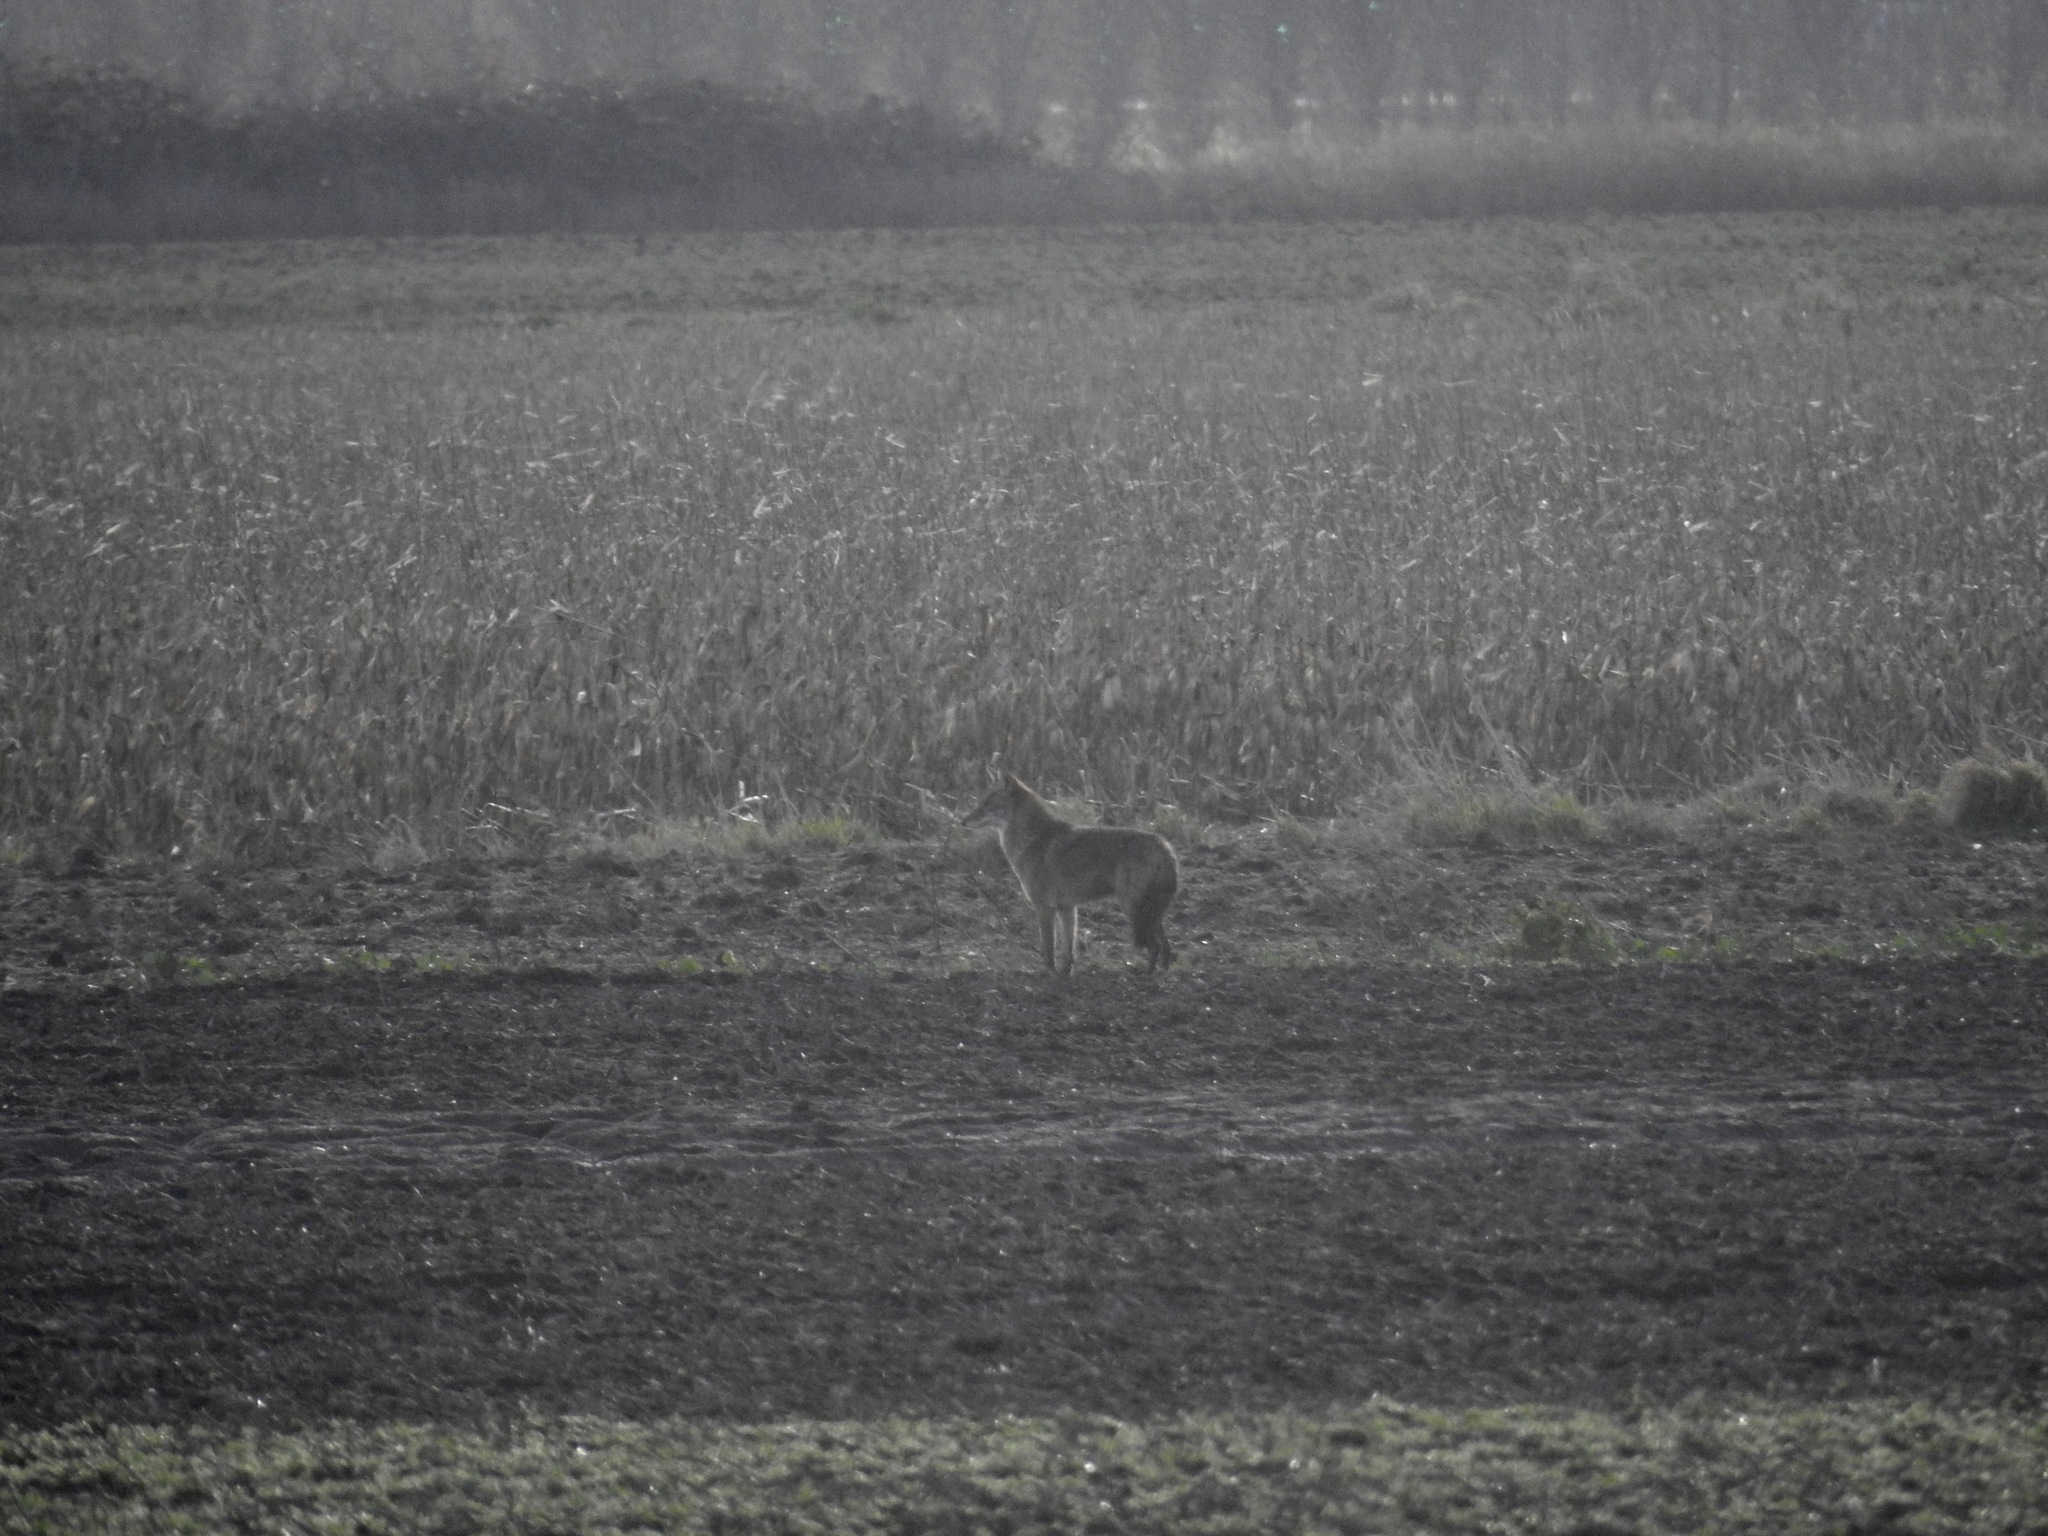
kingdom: Animalia
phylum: Chordata
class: Mammalia
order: Carnivora
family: Canidae
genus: Canis
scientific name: Canis latrans
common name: Coyote
